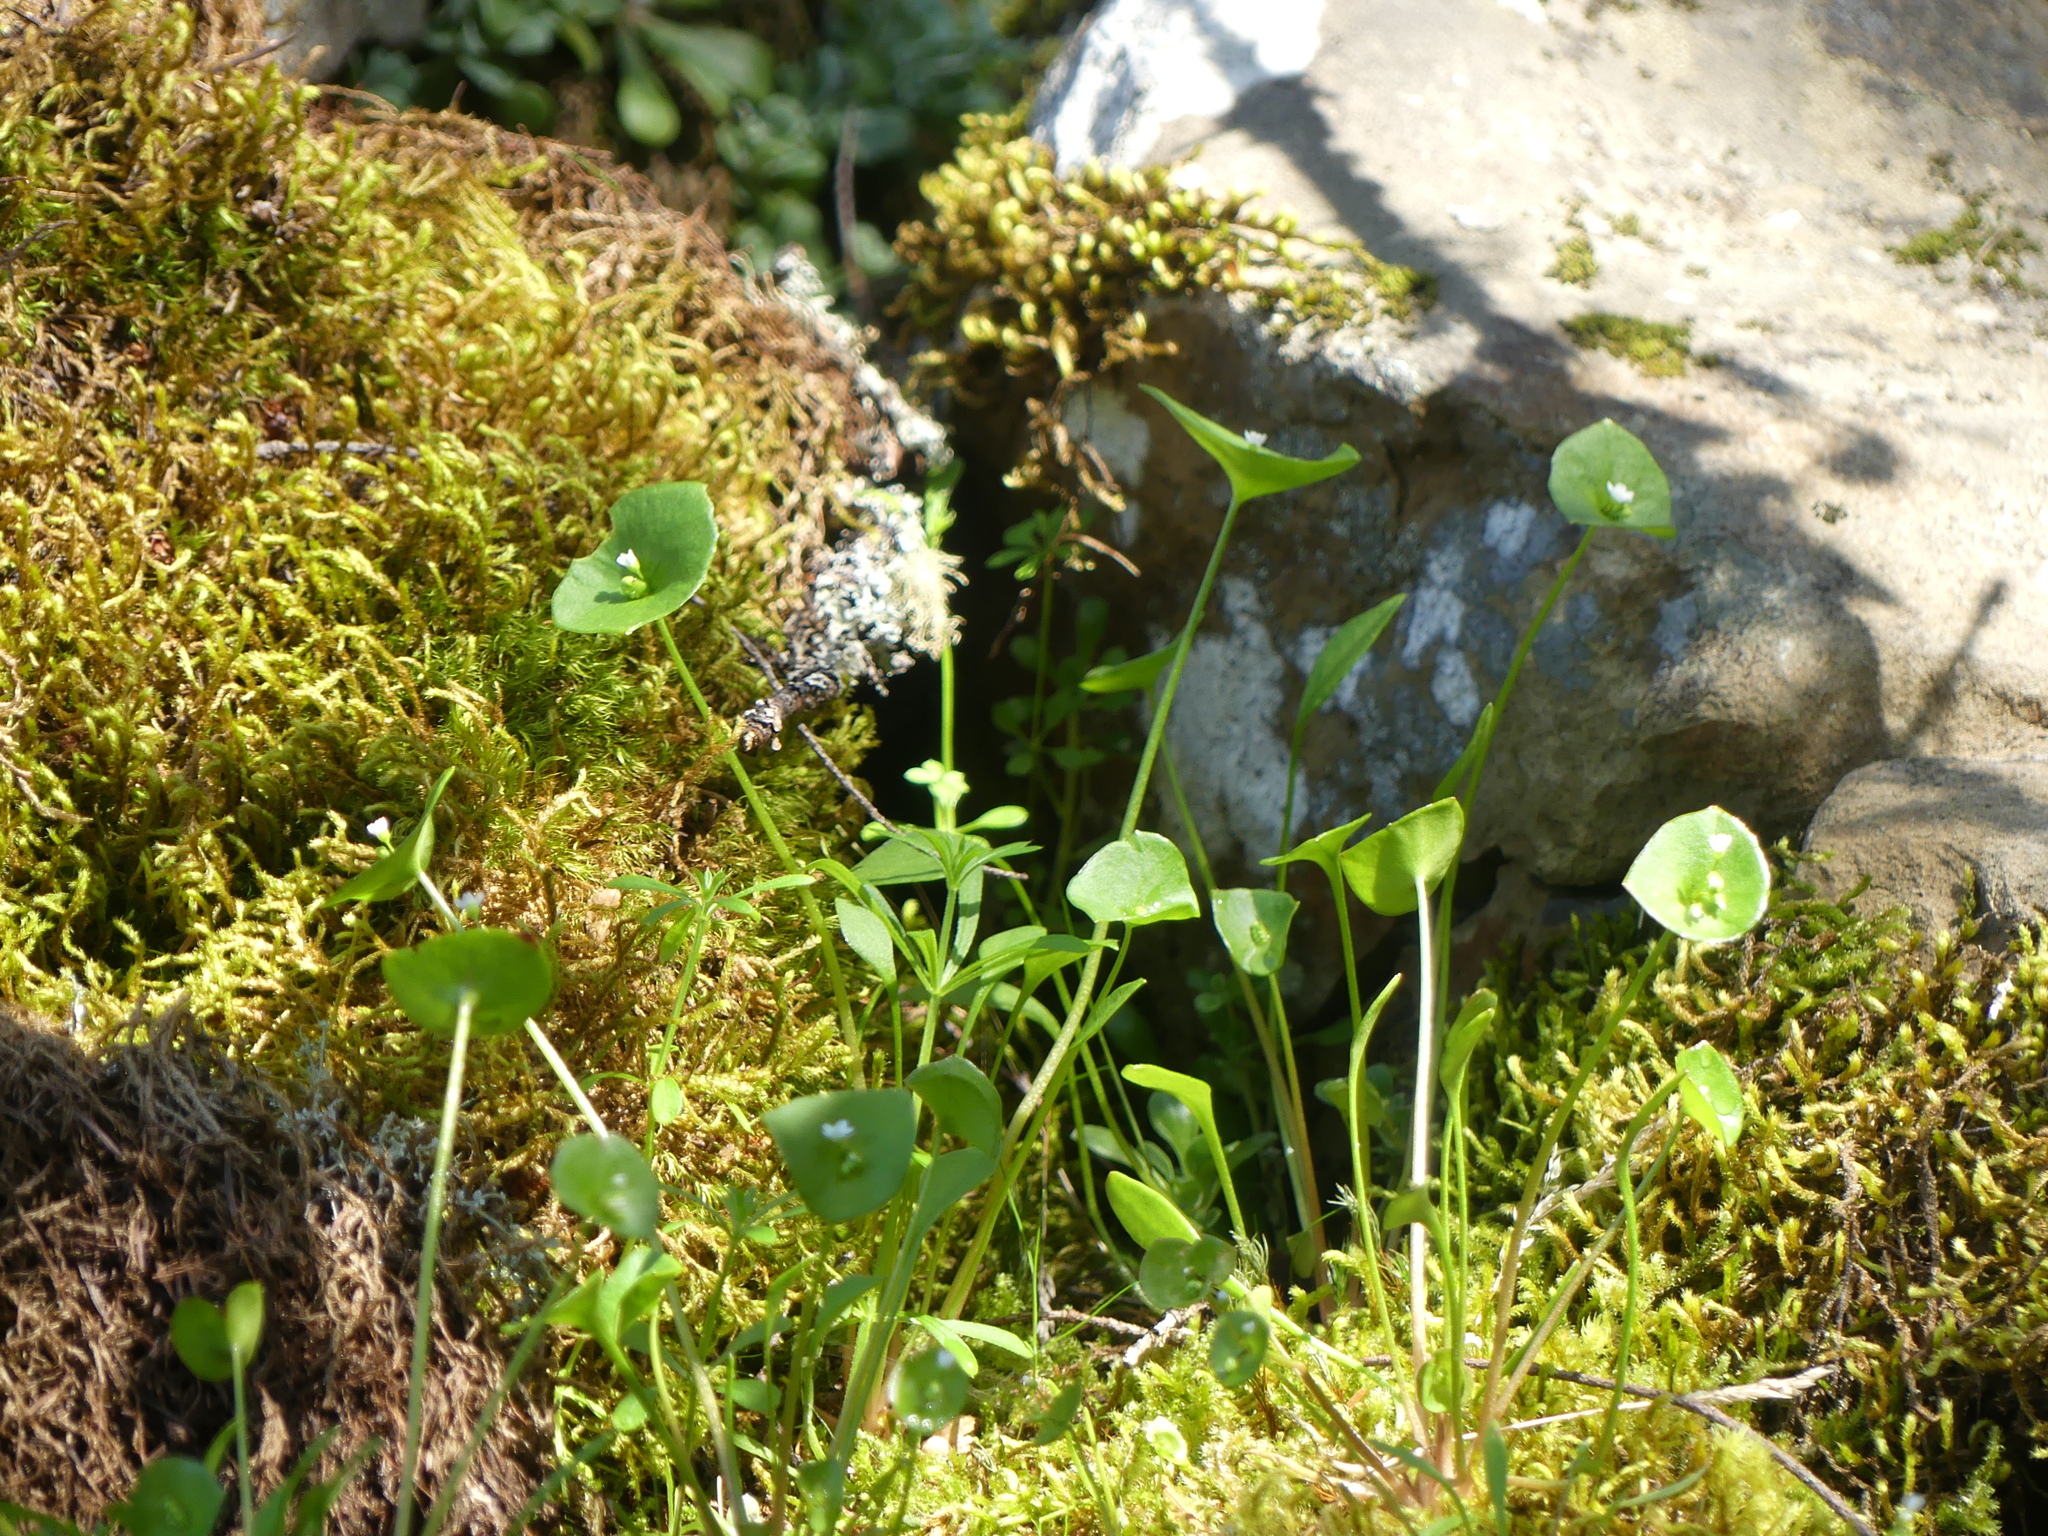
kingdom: Plantae
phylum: Tracheophyta
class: Magnoliopsida
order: Caryophyllales
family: Montiaceae
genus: Claytonia
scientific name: Claytonia perfoliata
